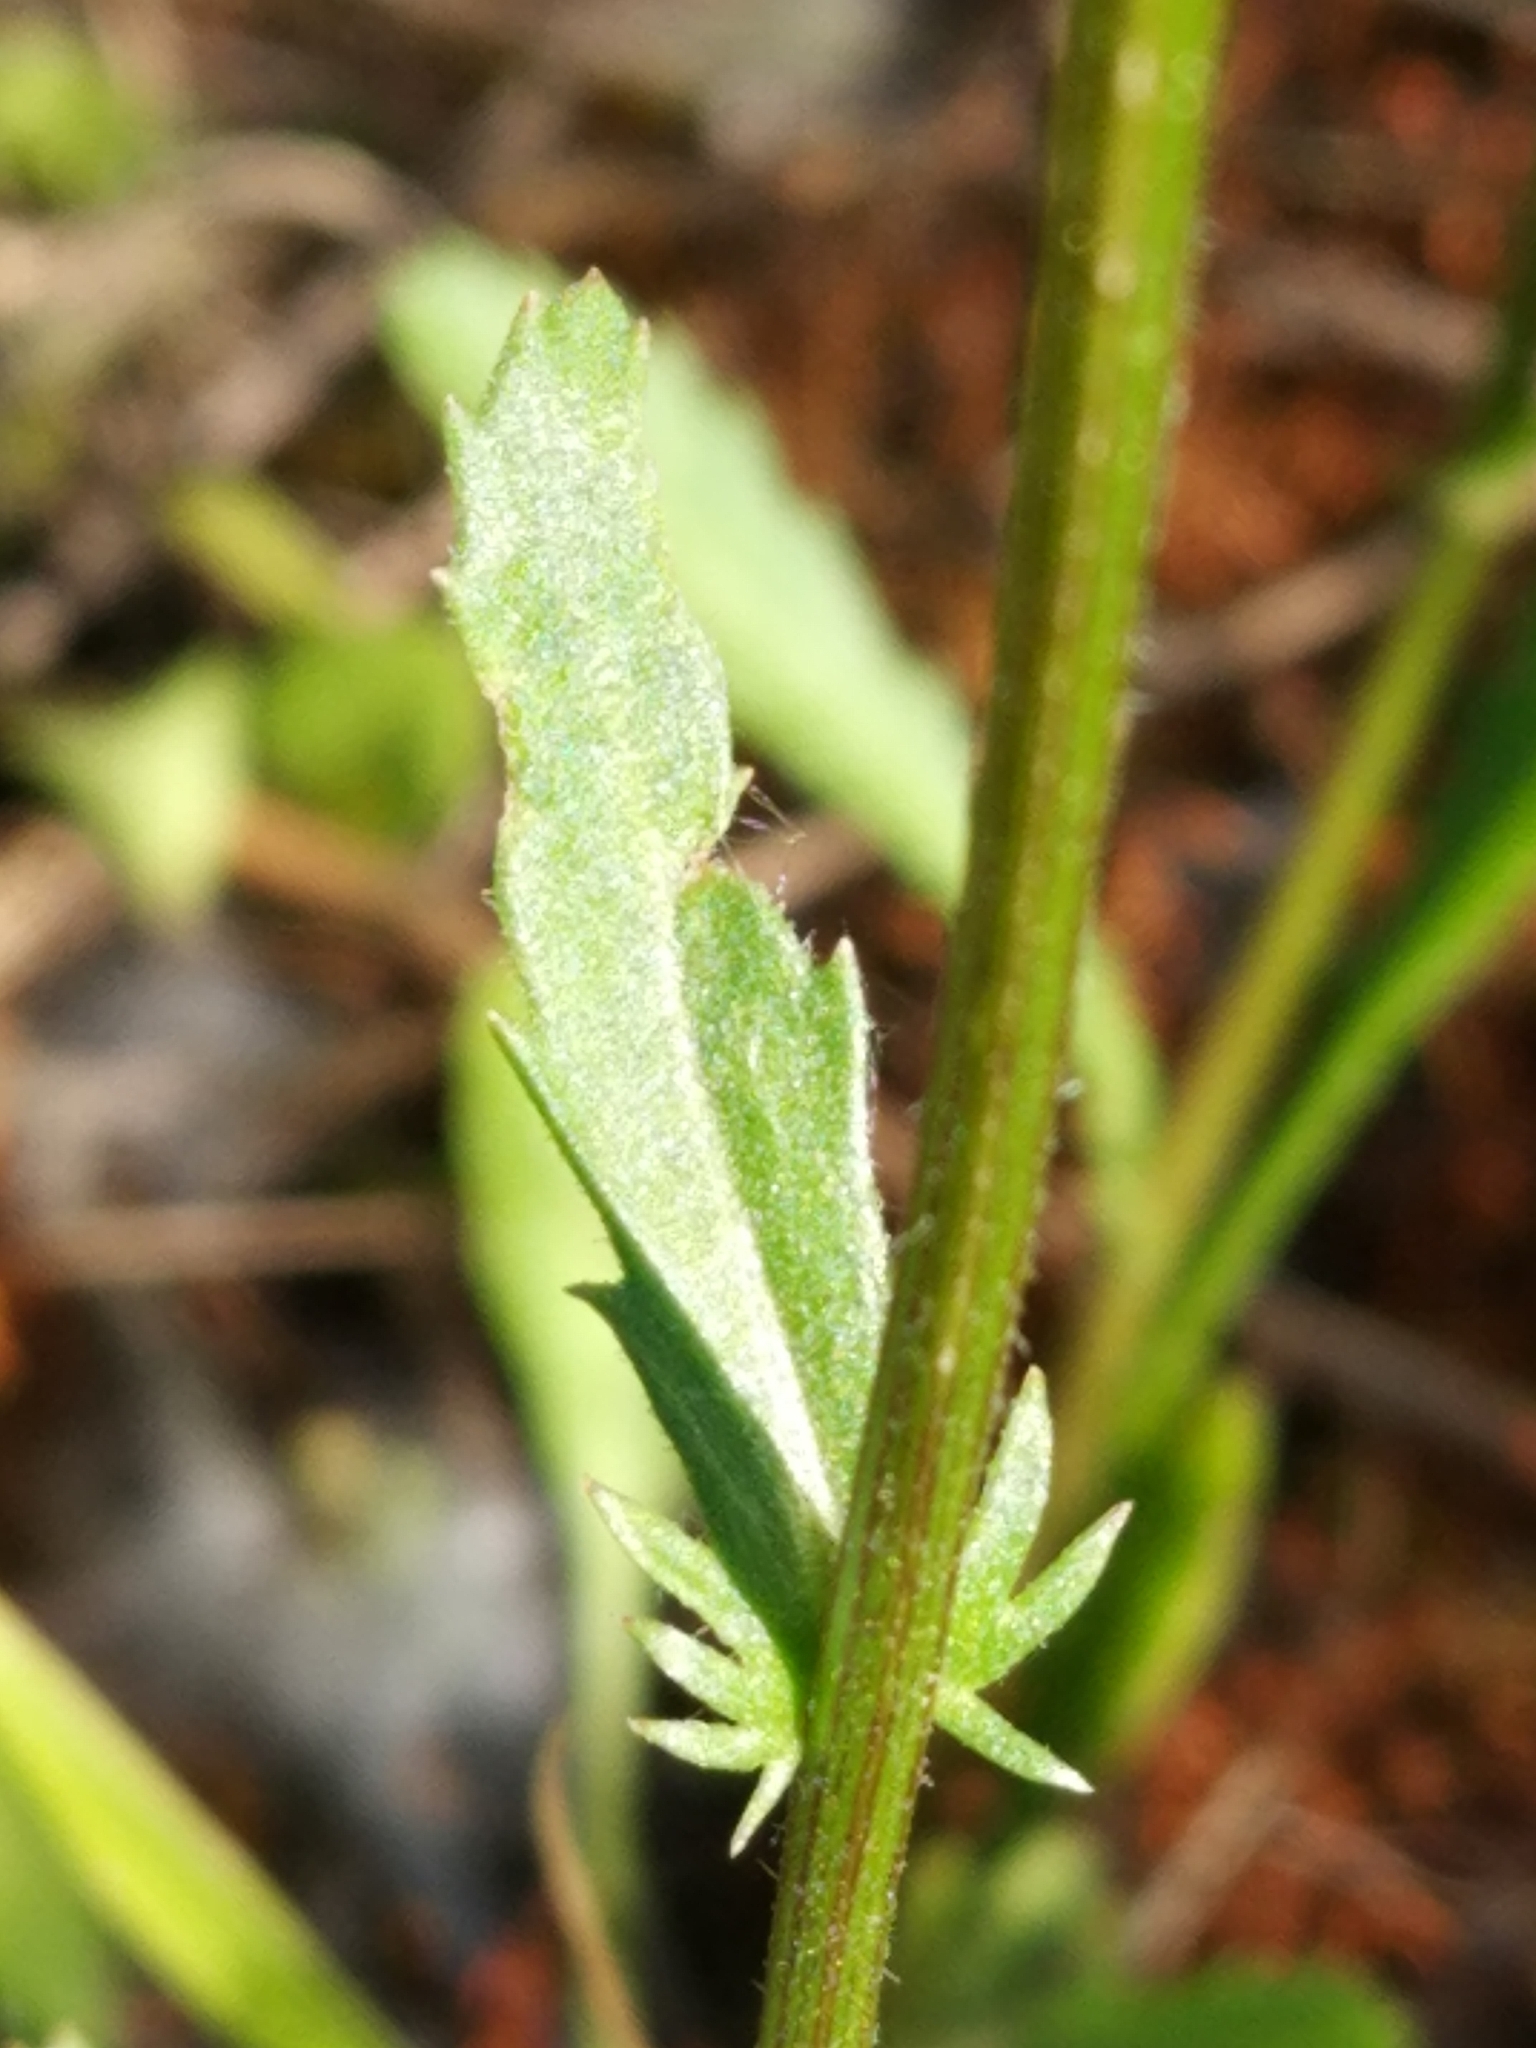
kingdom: Plantae
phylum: Tracheophyta
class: Magnoliopsida
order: Asterales
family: Asteraceae
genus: Leucanthemum
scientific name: Leucanthemum vulgare
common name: Oxeye daisy
